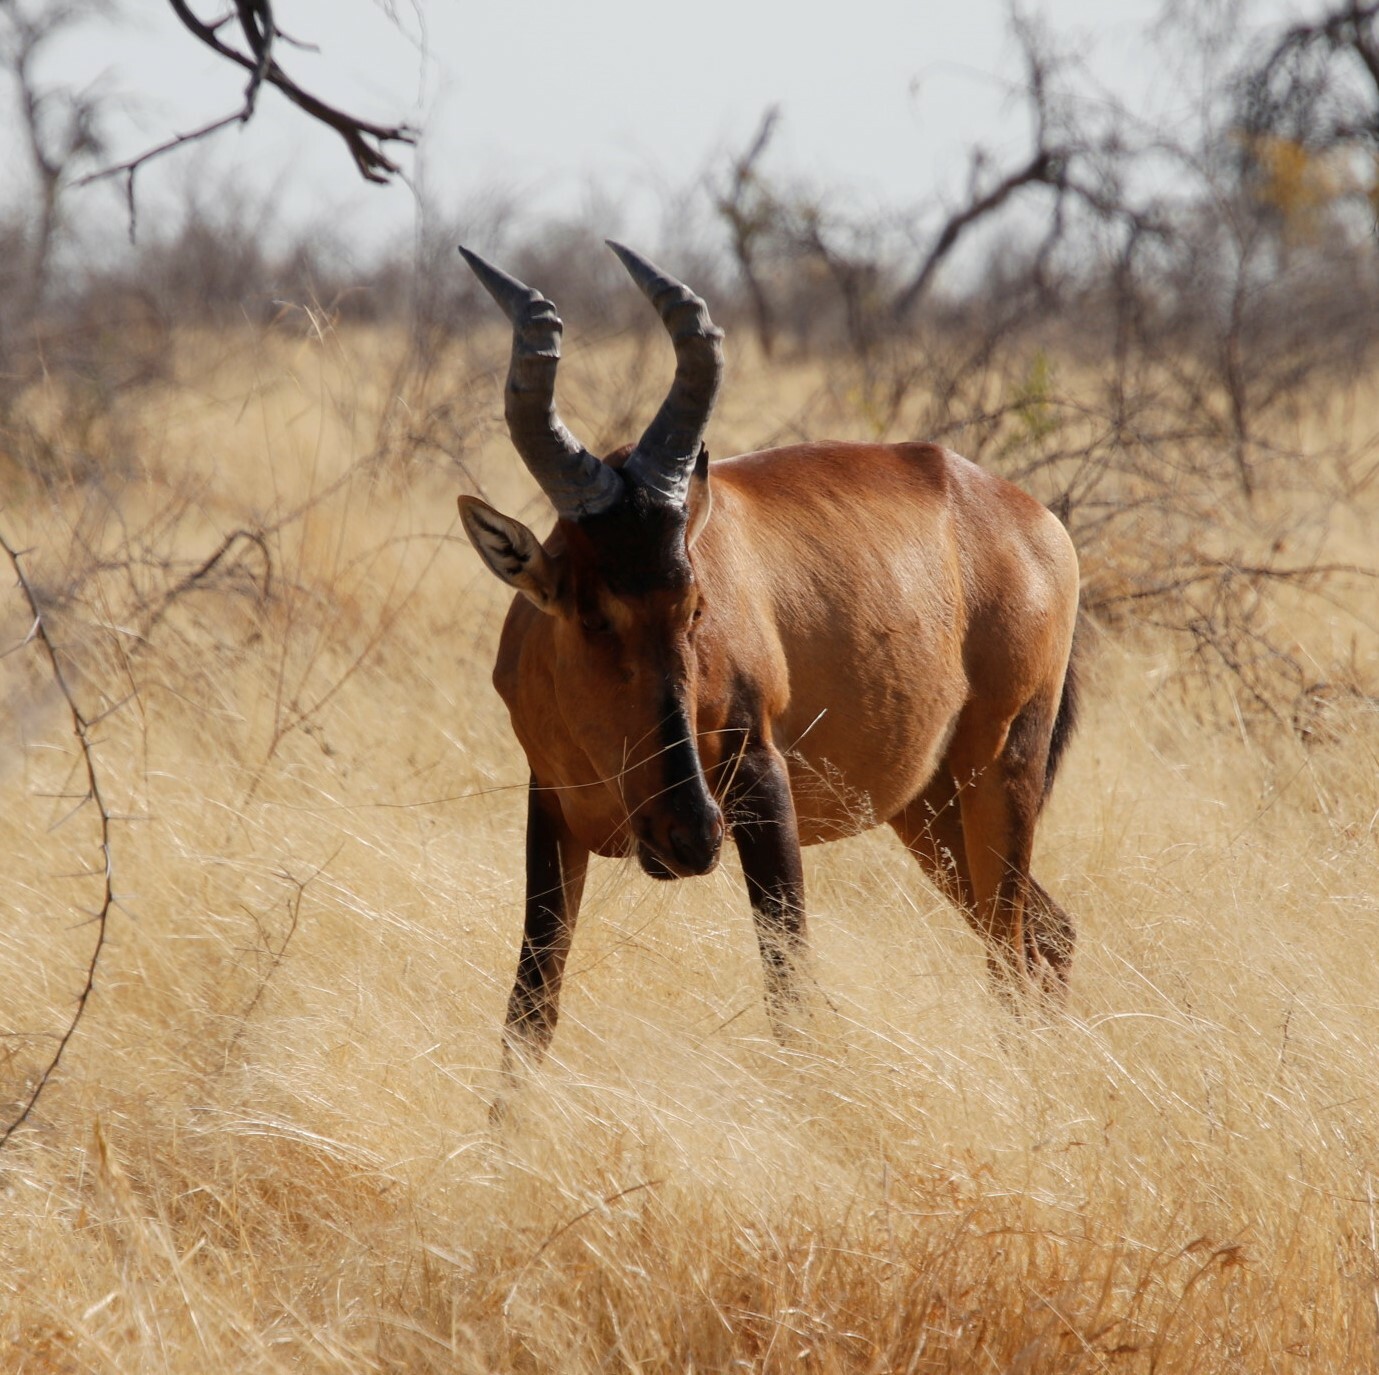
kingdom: Animalia
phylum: Chordata
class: Mammalia
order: Artiodactyla
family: Bovidae
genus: Alcelaphus
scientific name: Alcelaphus caama
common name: Red hartebeest
